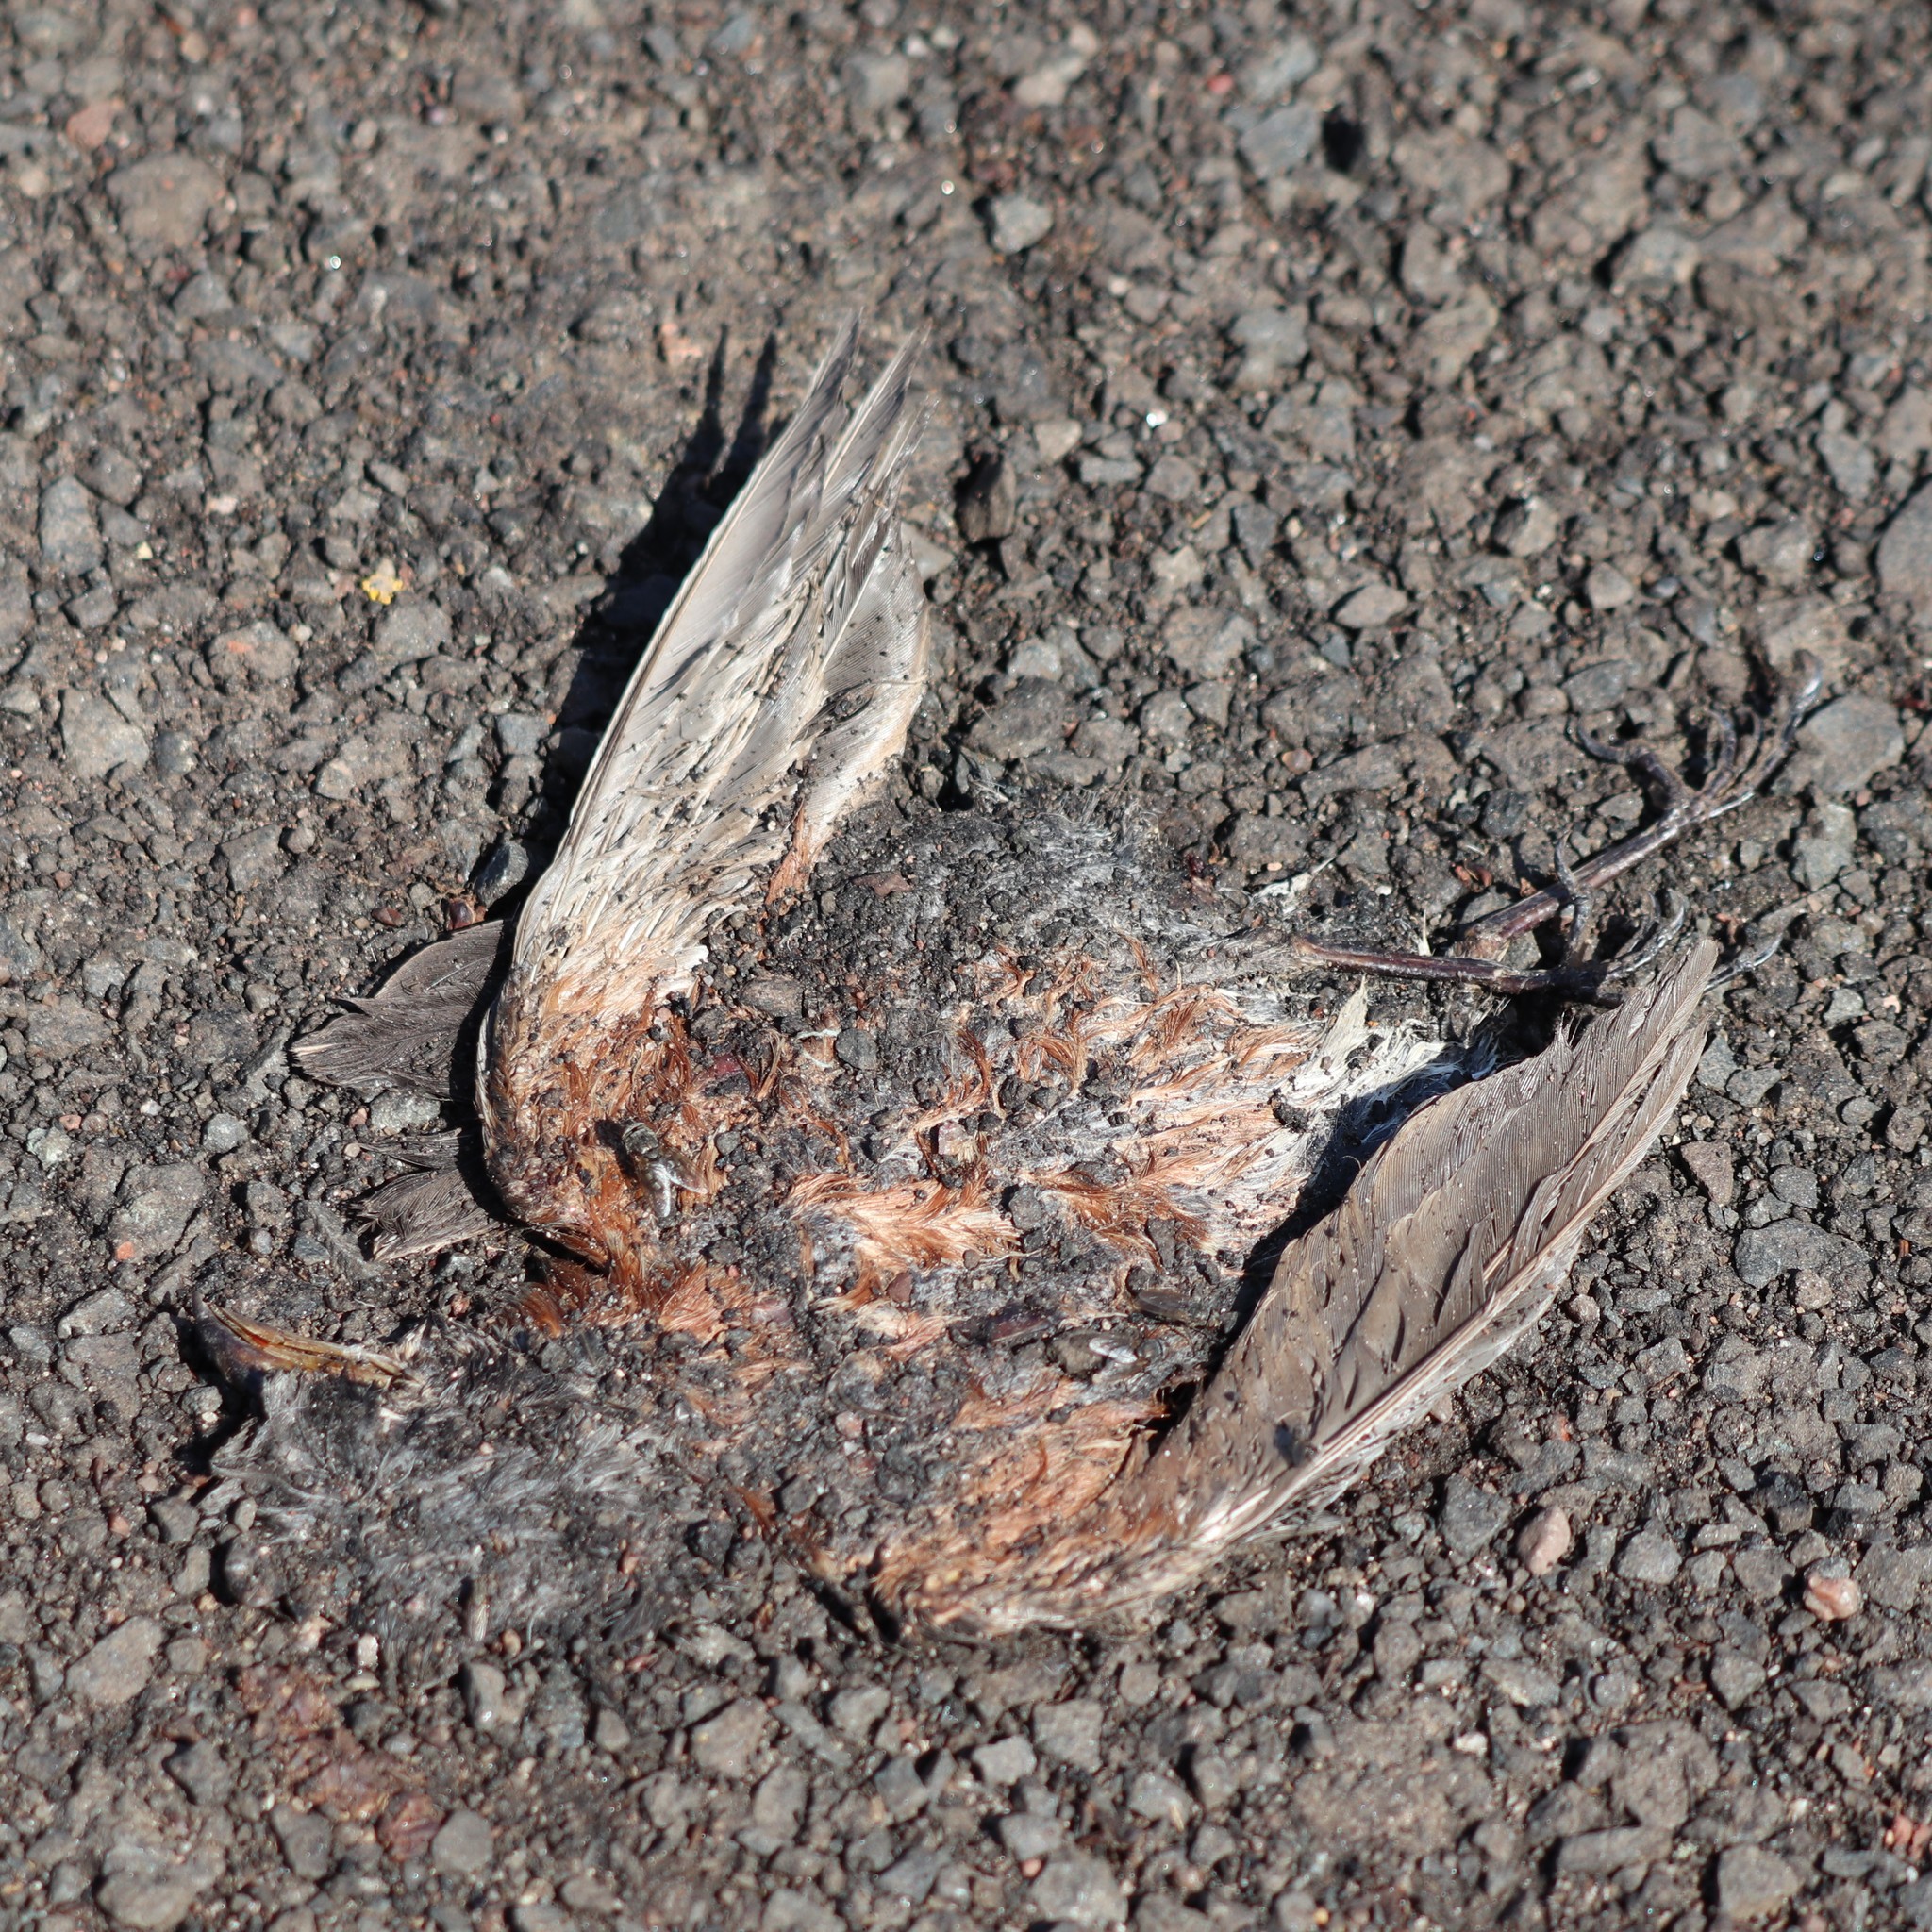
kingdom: Animalia
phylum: Chordata
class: Aves
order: Passeriformes
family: Turdidae
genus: Turdus
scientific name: Turdus migratorius
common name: American robin
